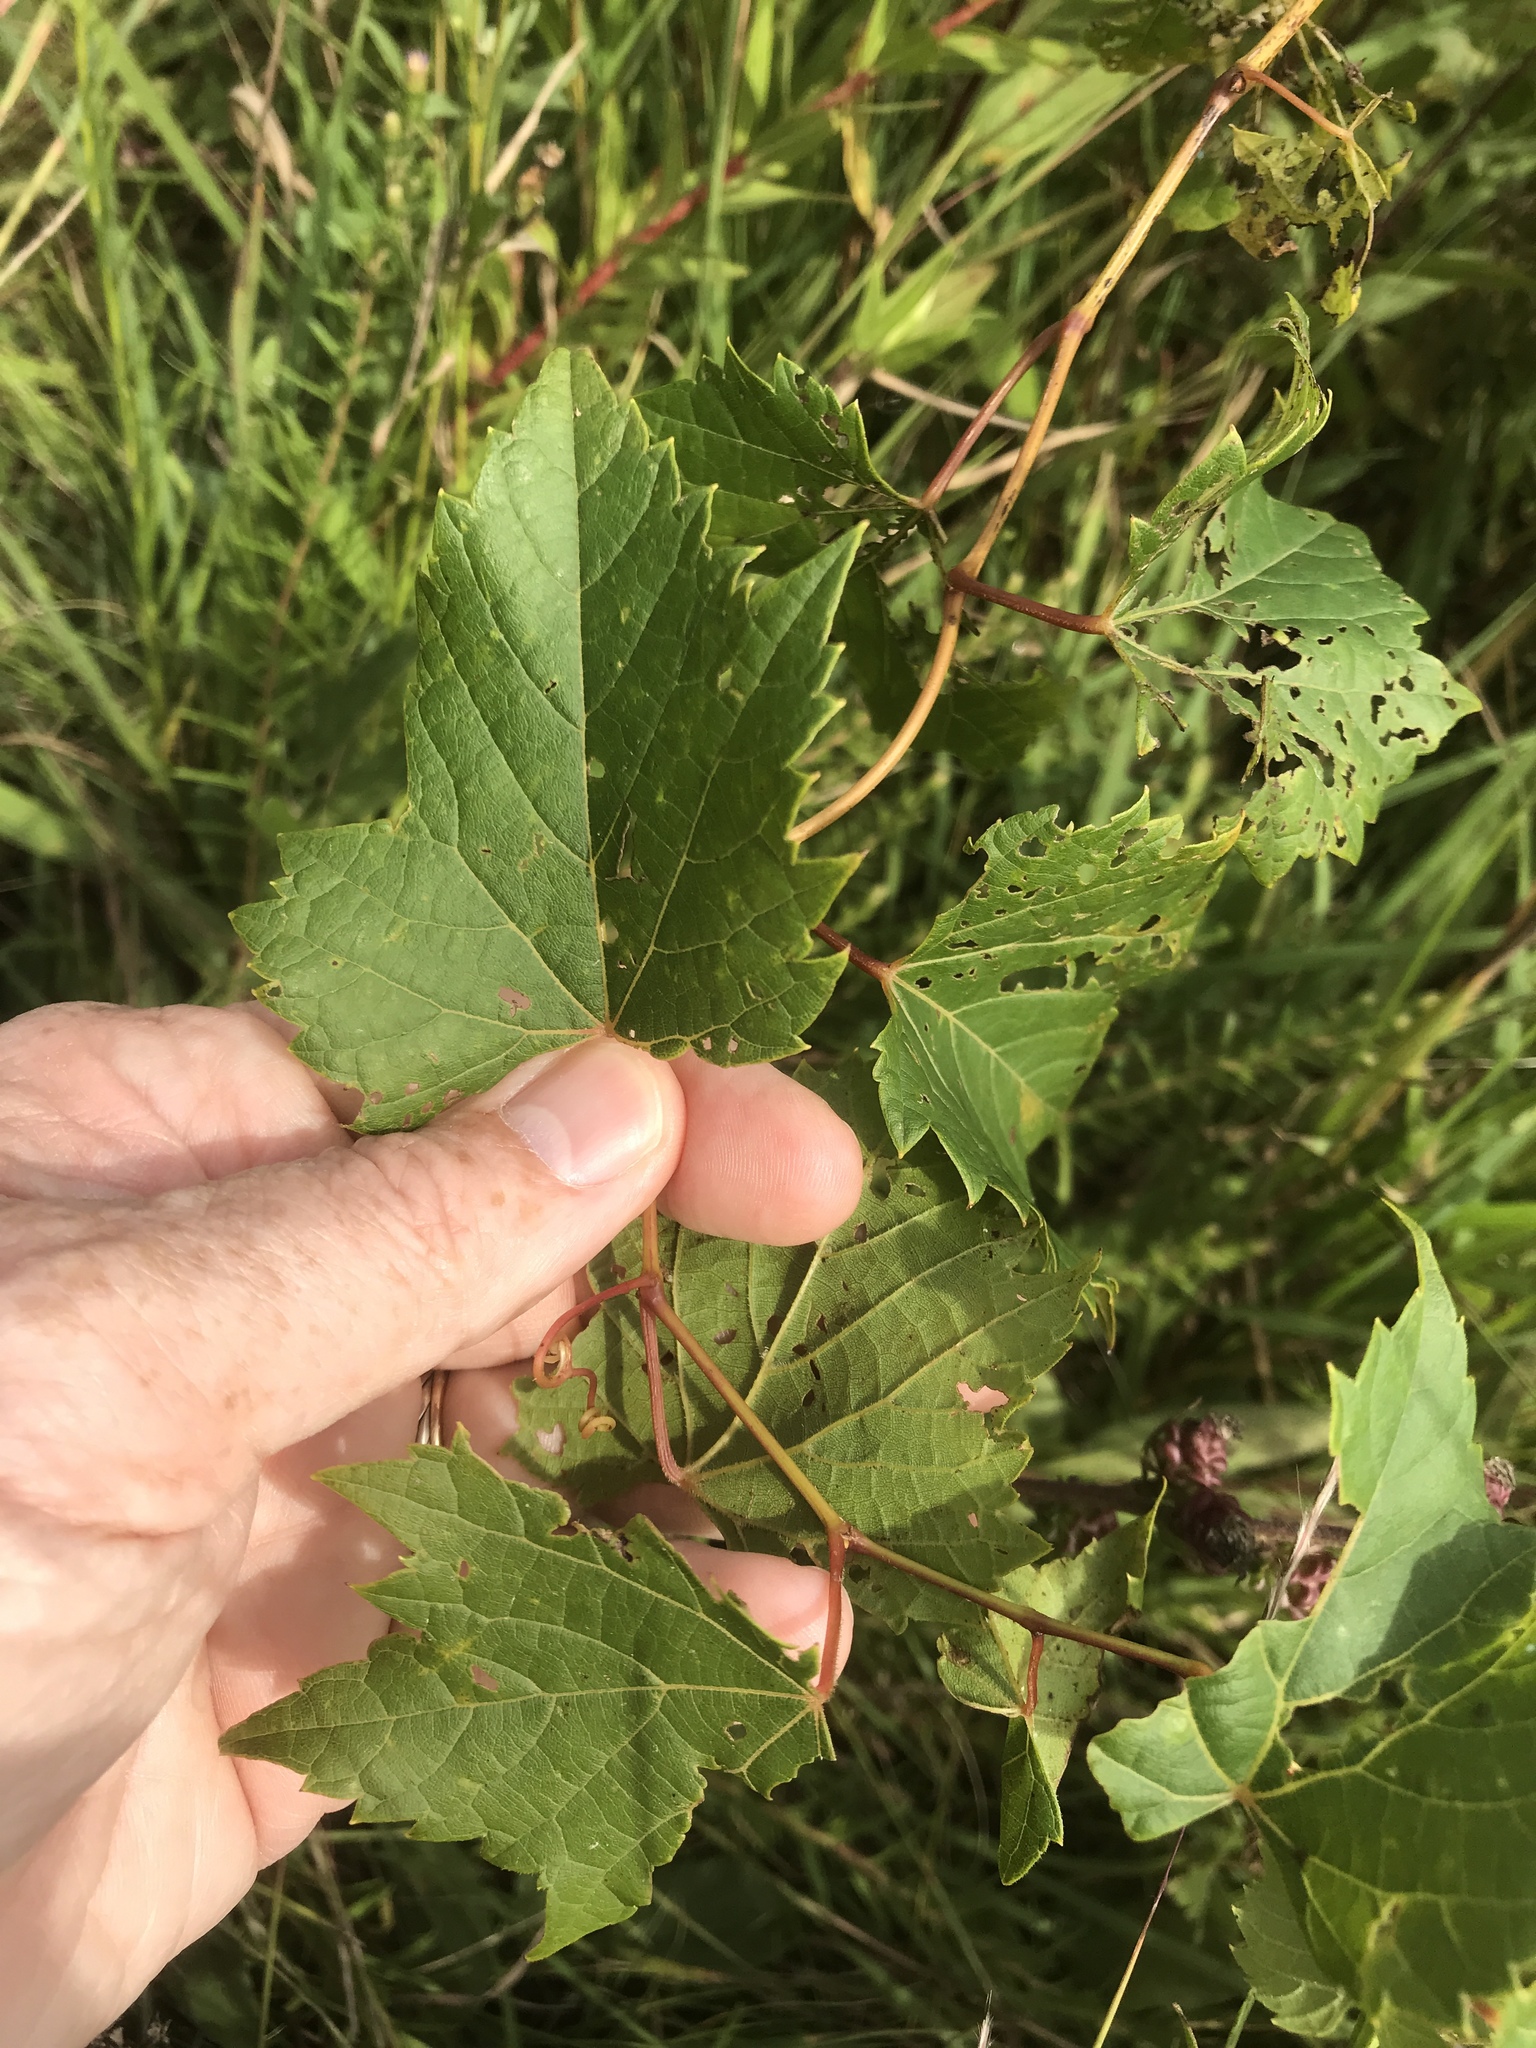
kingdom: Plantae
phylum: Tracheophyta
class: Magnoliopsida
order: Vitales
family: Vitaceae
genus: Vitis
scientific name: Vitis riparia
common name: Frost grape
